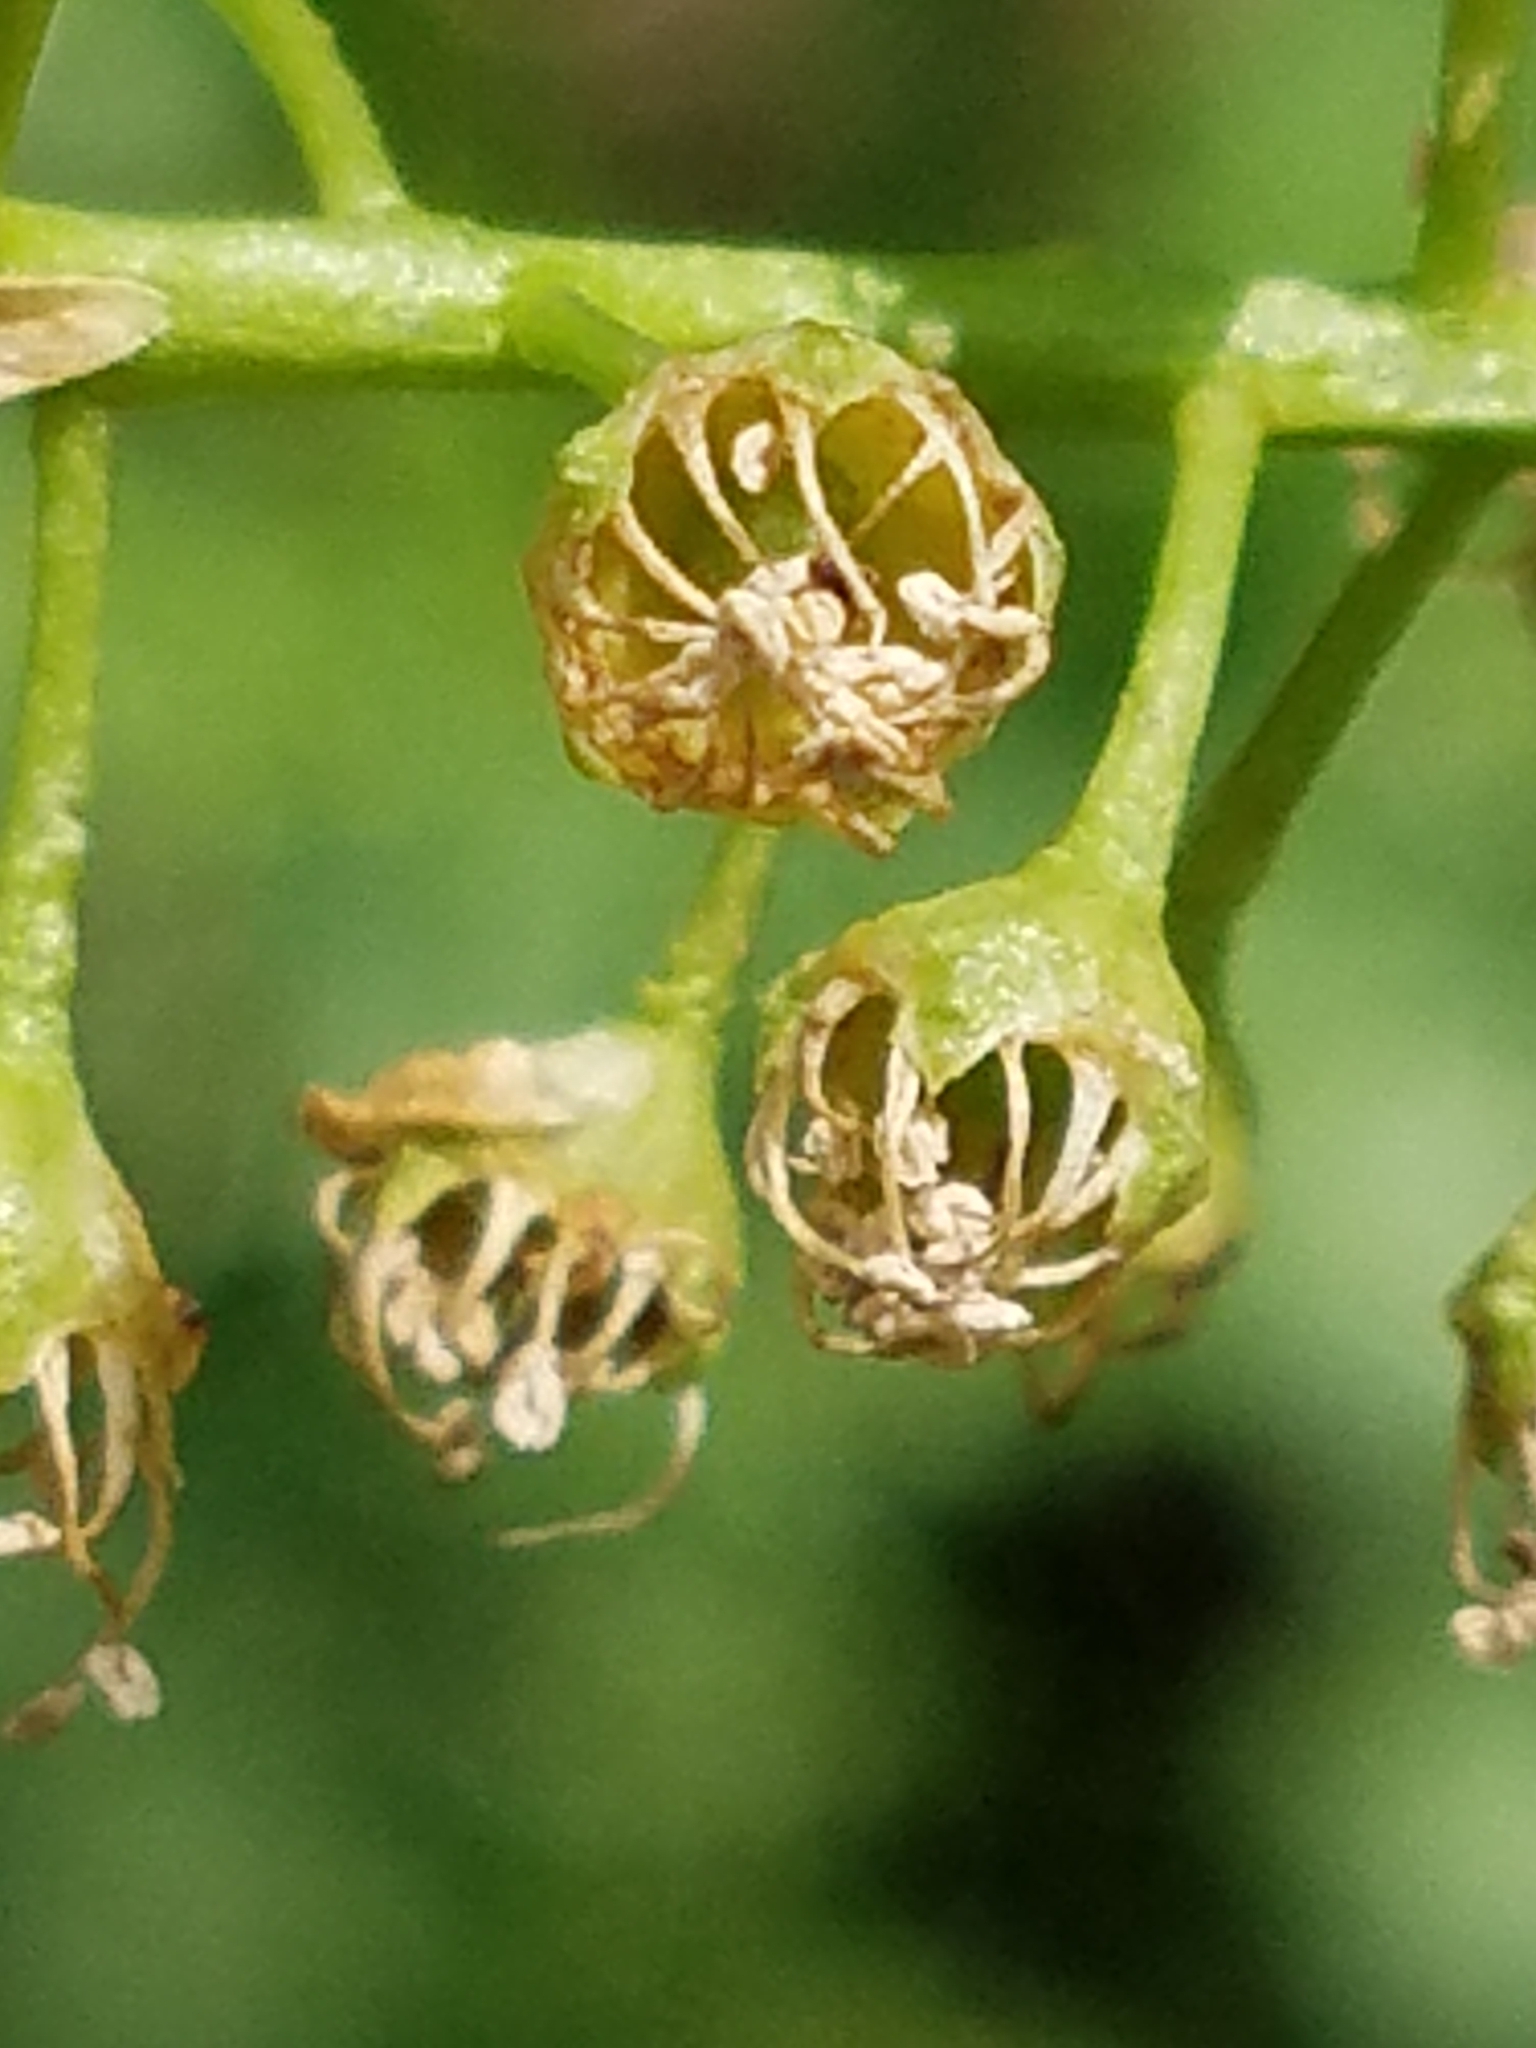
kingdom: Plantae
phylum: Tracheophyta
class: Magnoliopsida
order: Rosales
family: Rosaceae
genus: Prunus
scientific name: Prunus serotina
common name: Black cherry
